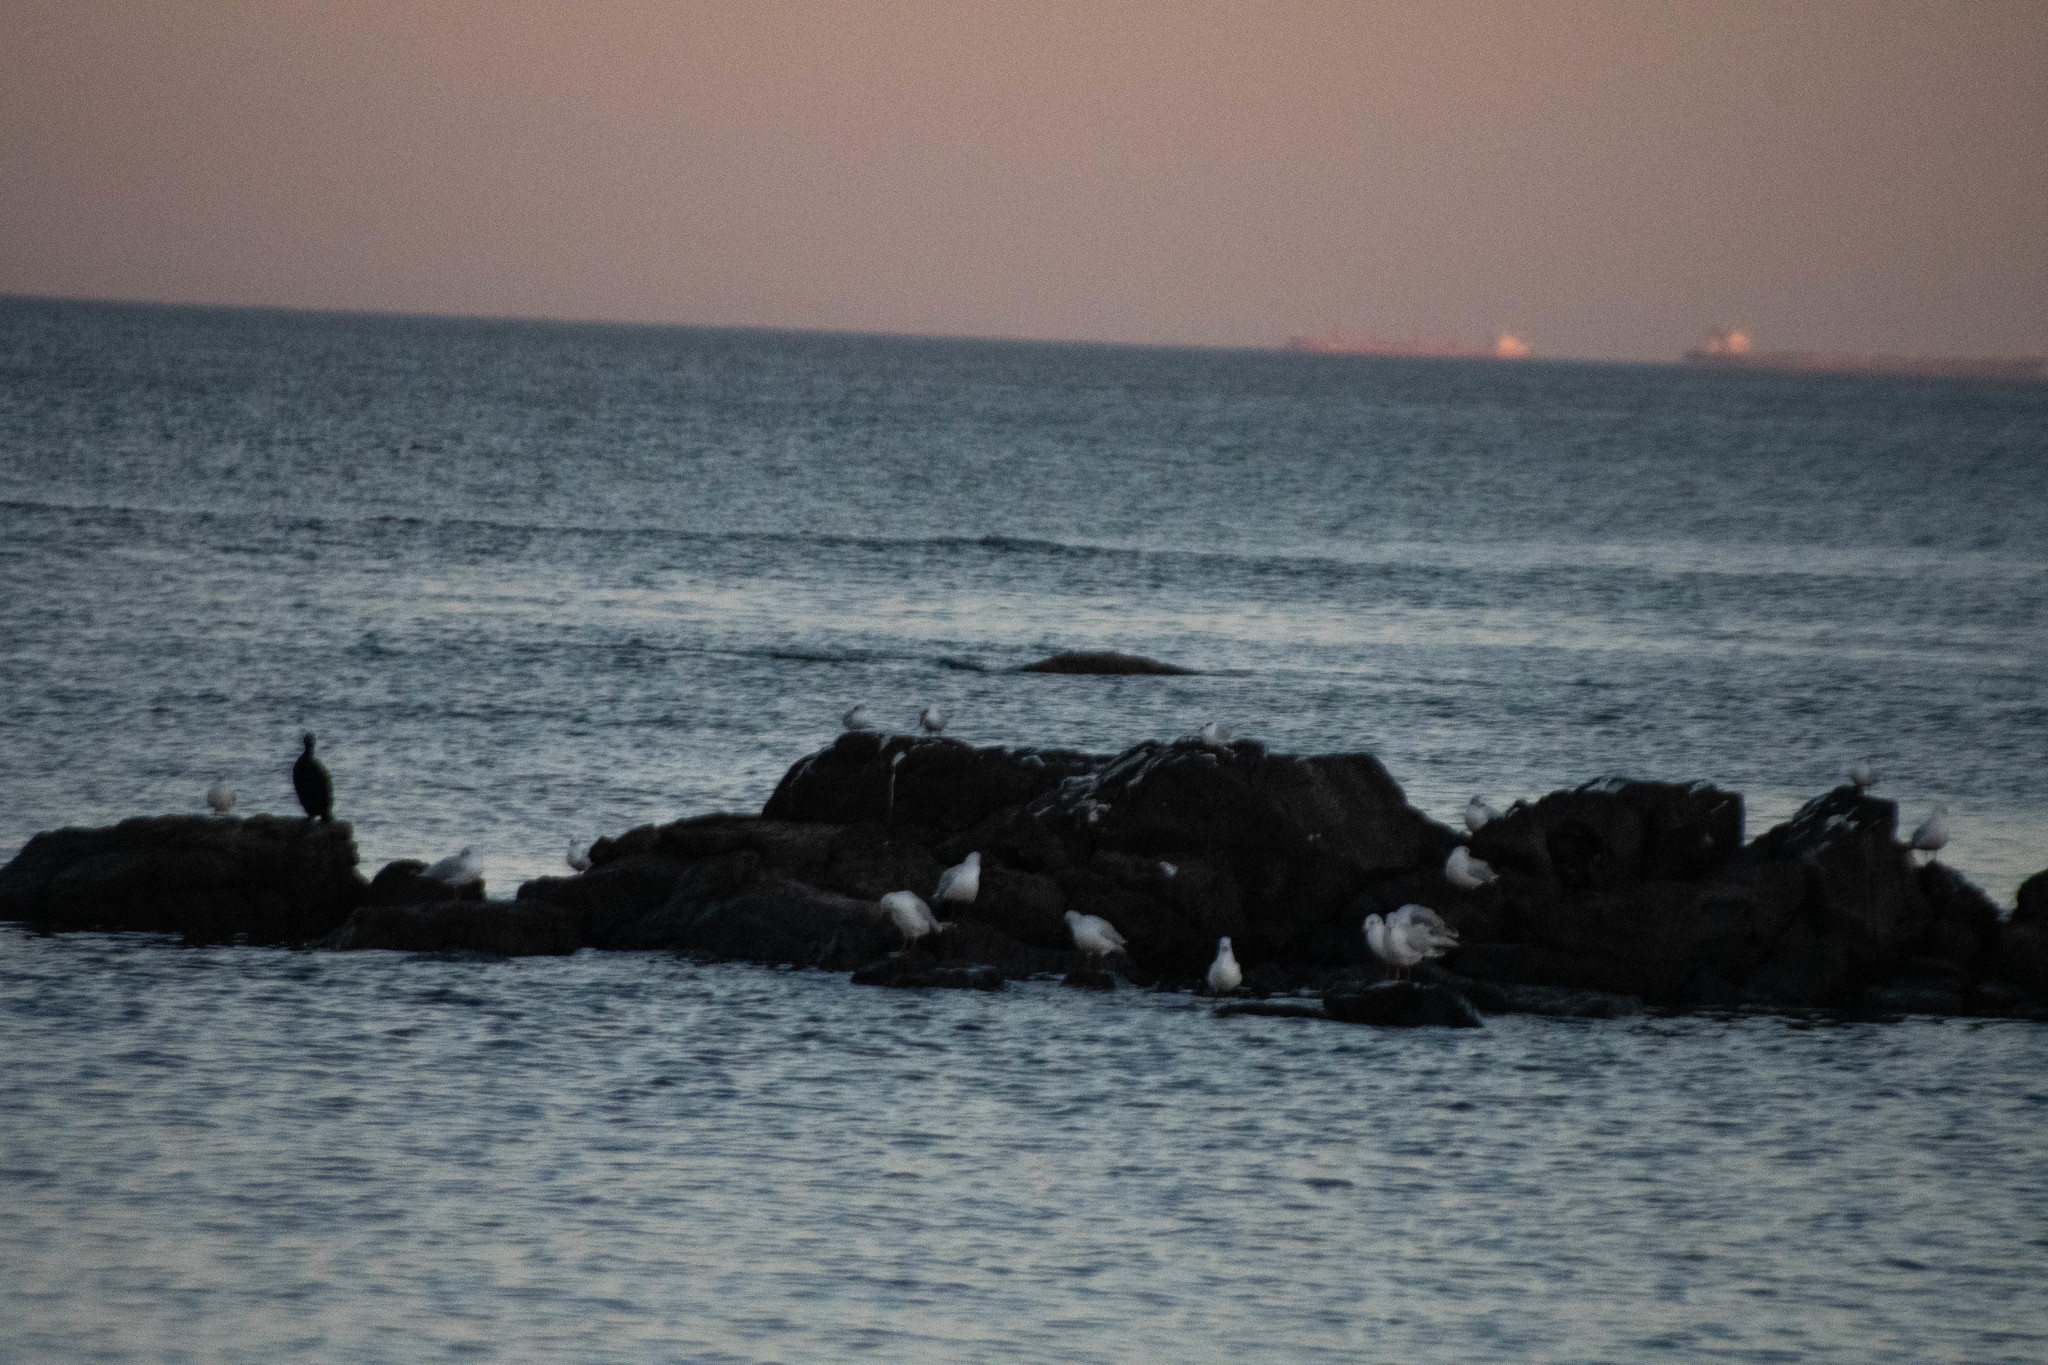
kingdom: Animalia
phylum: Chordata
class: Aves
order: Charadriiformes
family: Laridae
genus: Chroicocephalus
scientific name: Chroicocephalus maculipennis
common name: Brown-hooded gull
